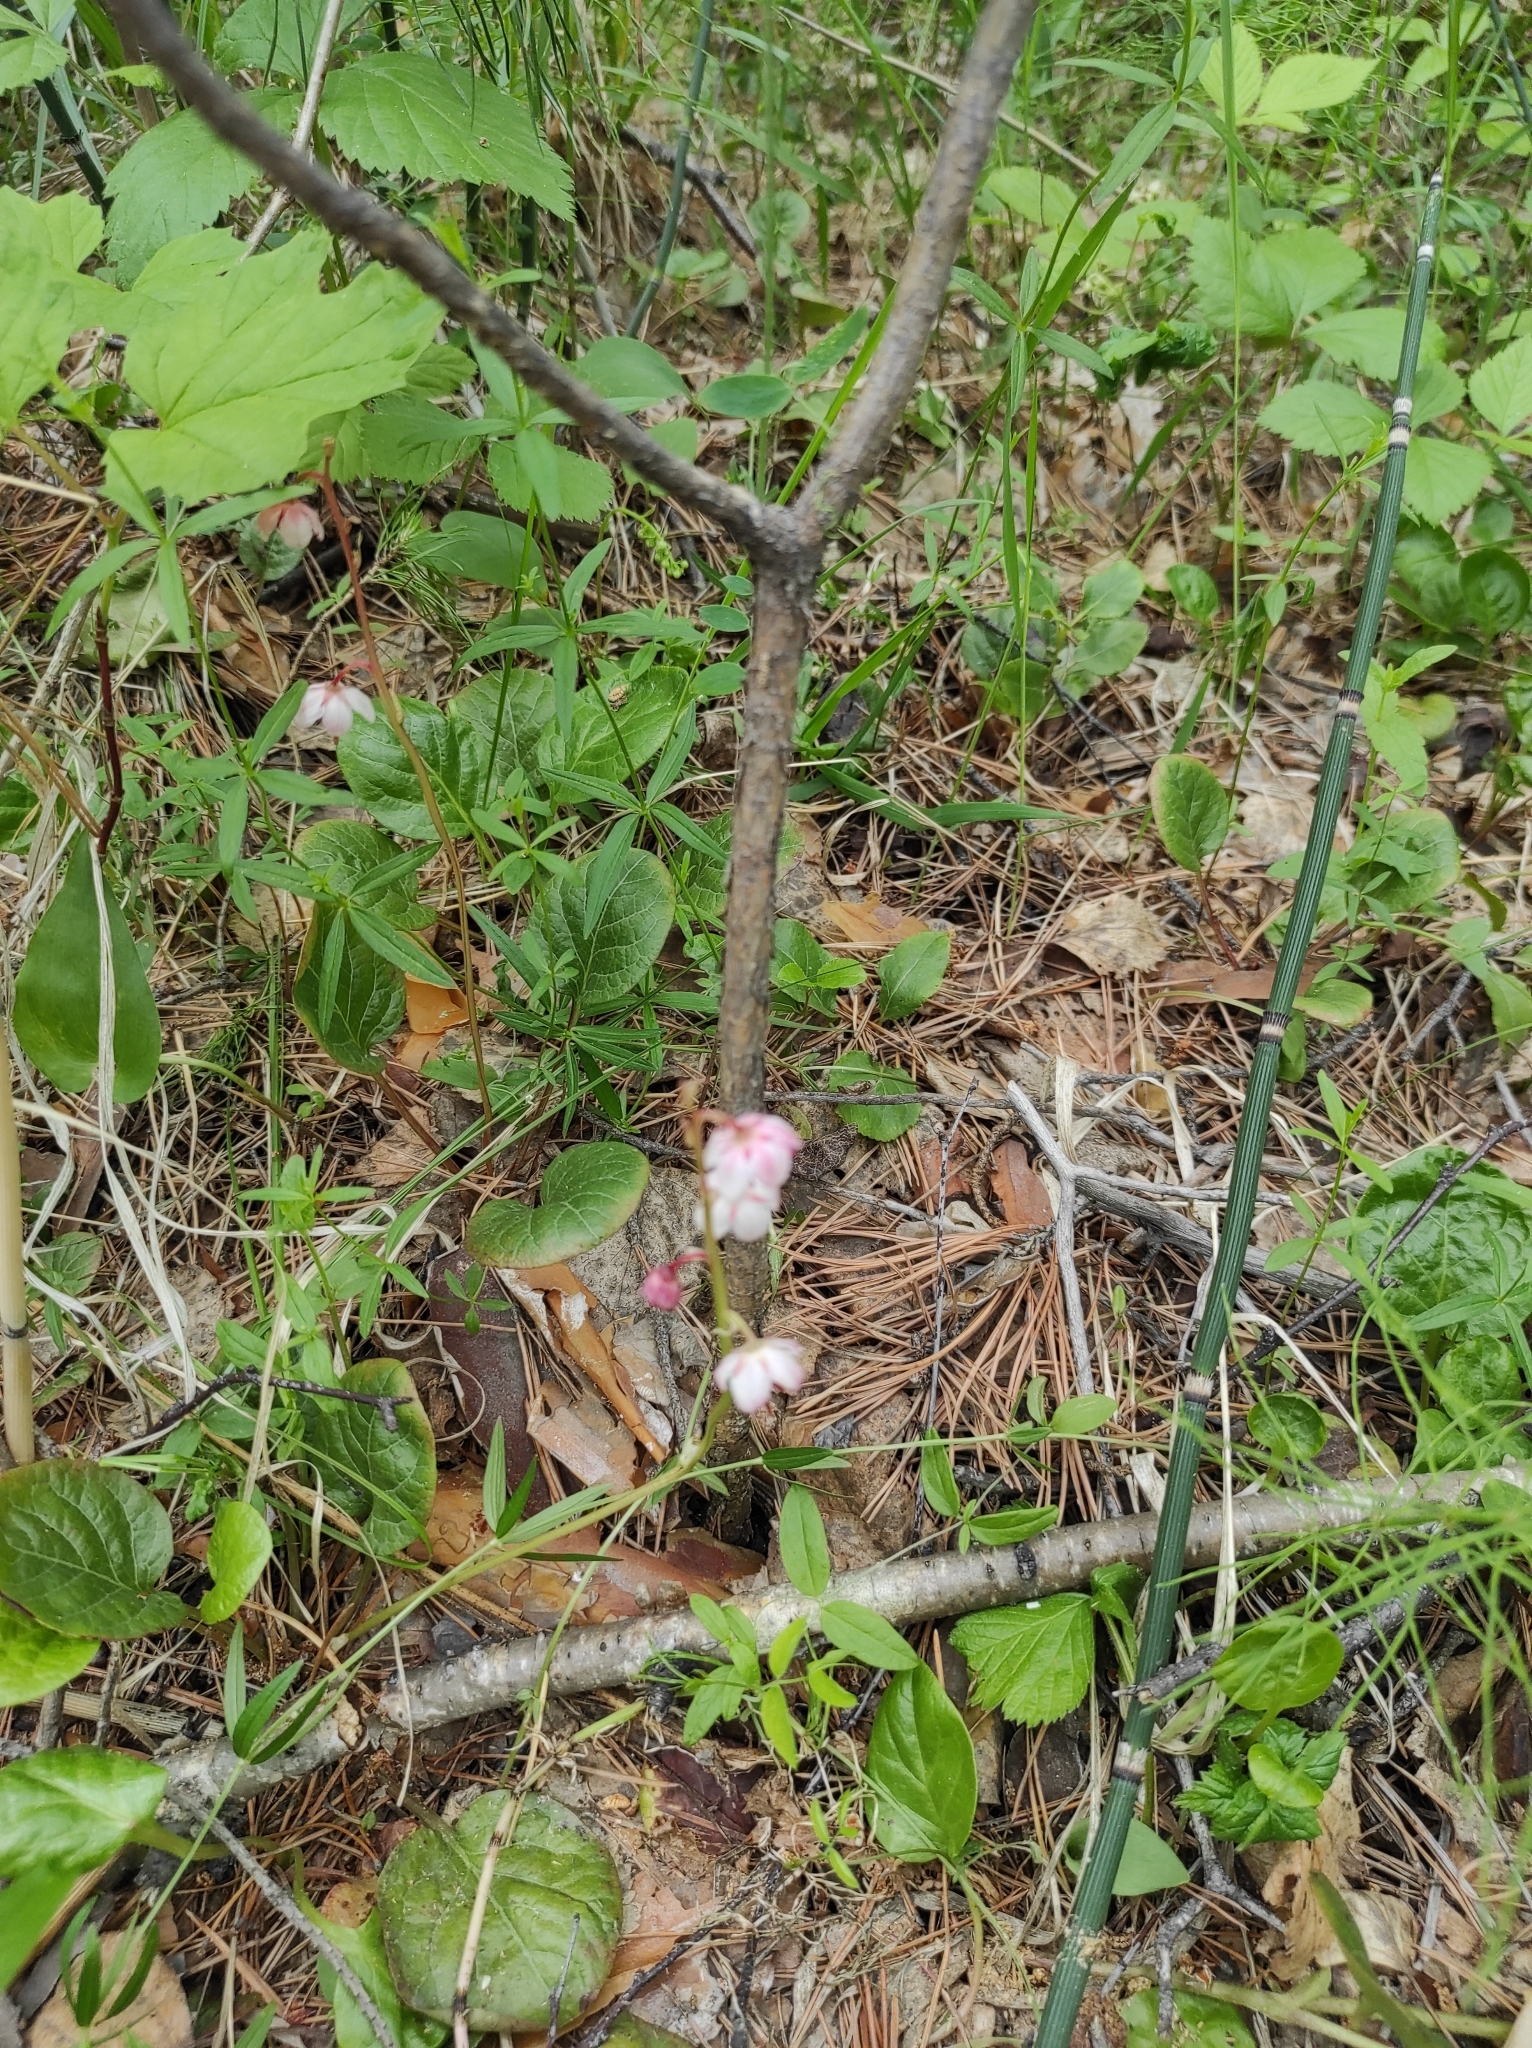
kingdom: Plantae
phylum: Tracheophyta
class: Magnoliopsida
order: Ericales
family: Ericaceae
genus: Pyrola
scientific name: Pyrola asarifolia
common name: Bog wintergreen
